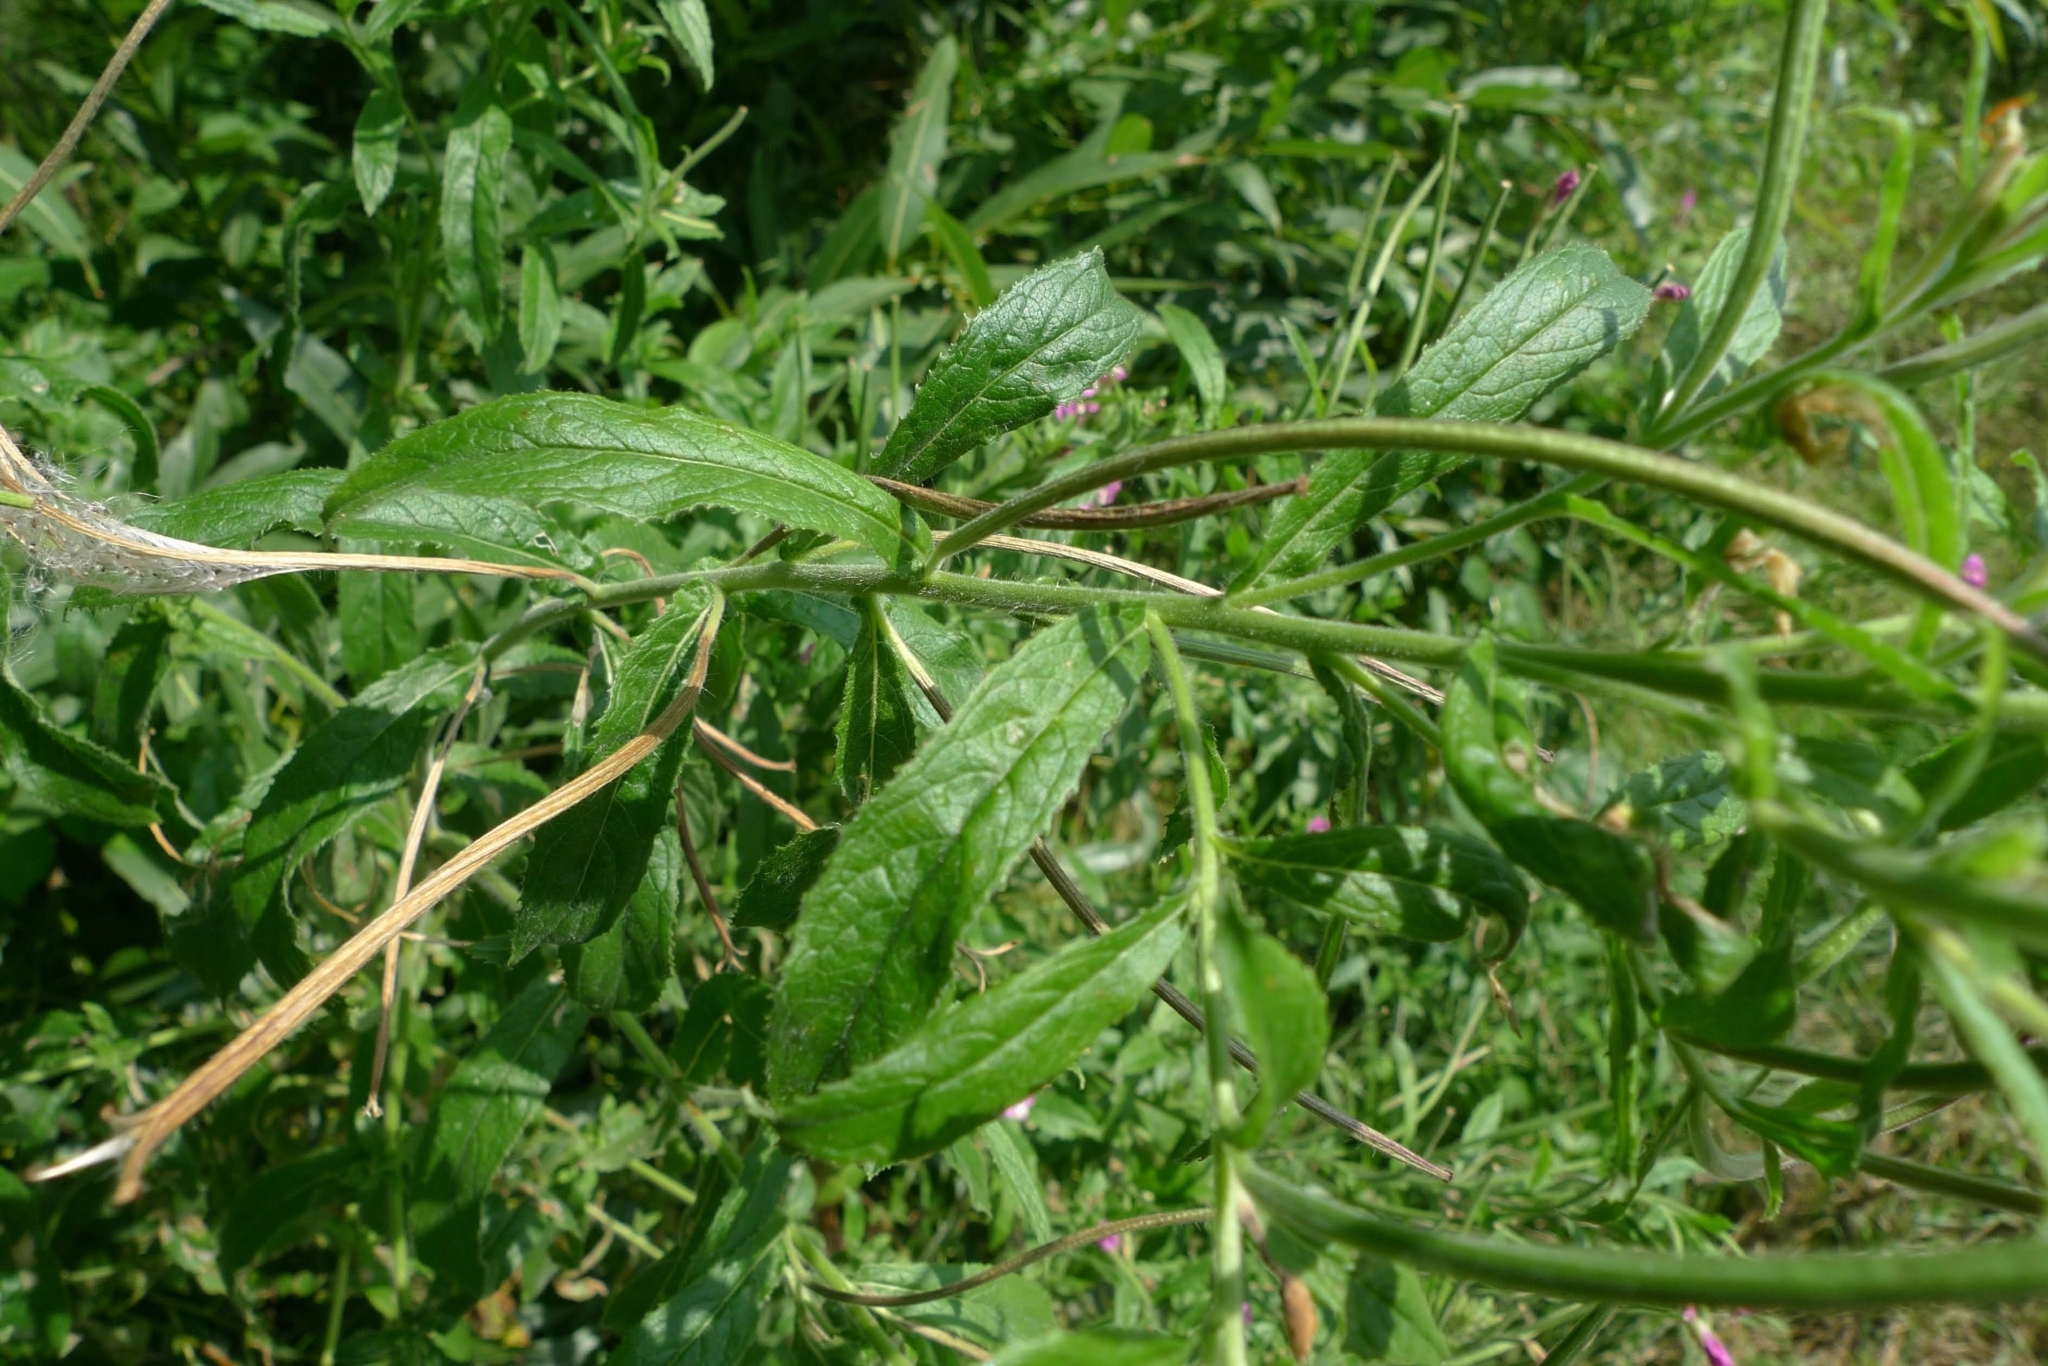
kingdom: Plantae
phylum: Tracheophyta
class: Magnoliopsida
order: Myrtales
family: Onagraceae
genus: Epilobium
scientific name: Epilobium hirsutum
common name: Great willowherb
